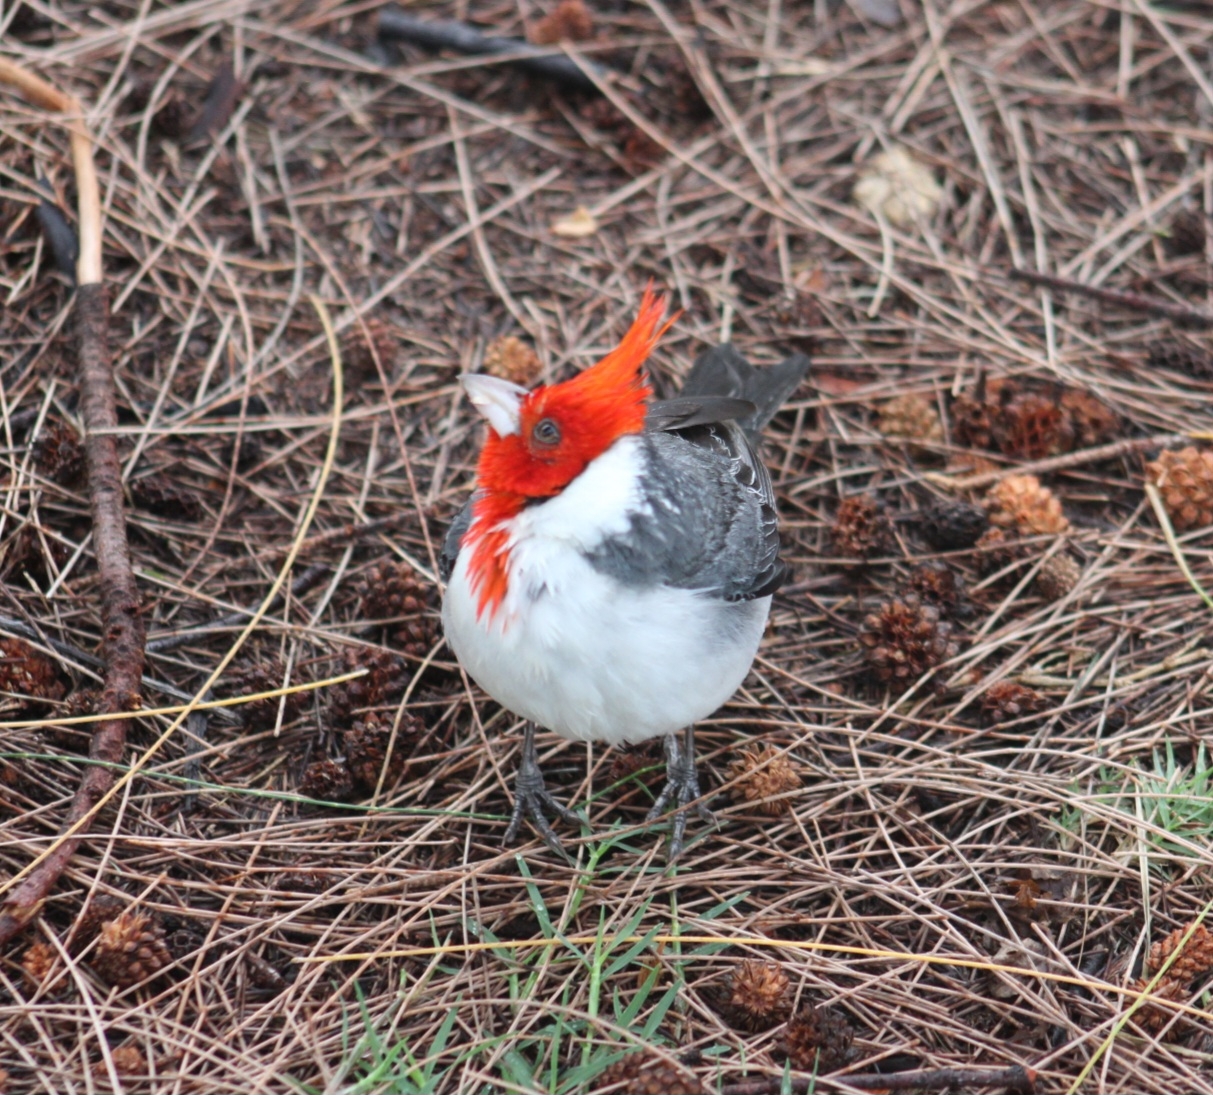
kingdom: Animalia
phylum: Chordata
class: Aves
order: Passeriformes
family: Thraupidae
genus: Paroaria
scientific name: Paroaria coronata
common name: Red-crested cardinal
